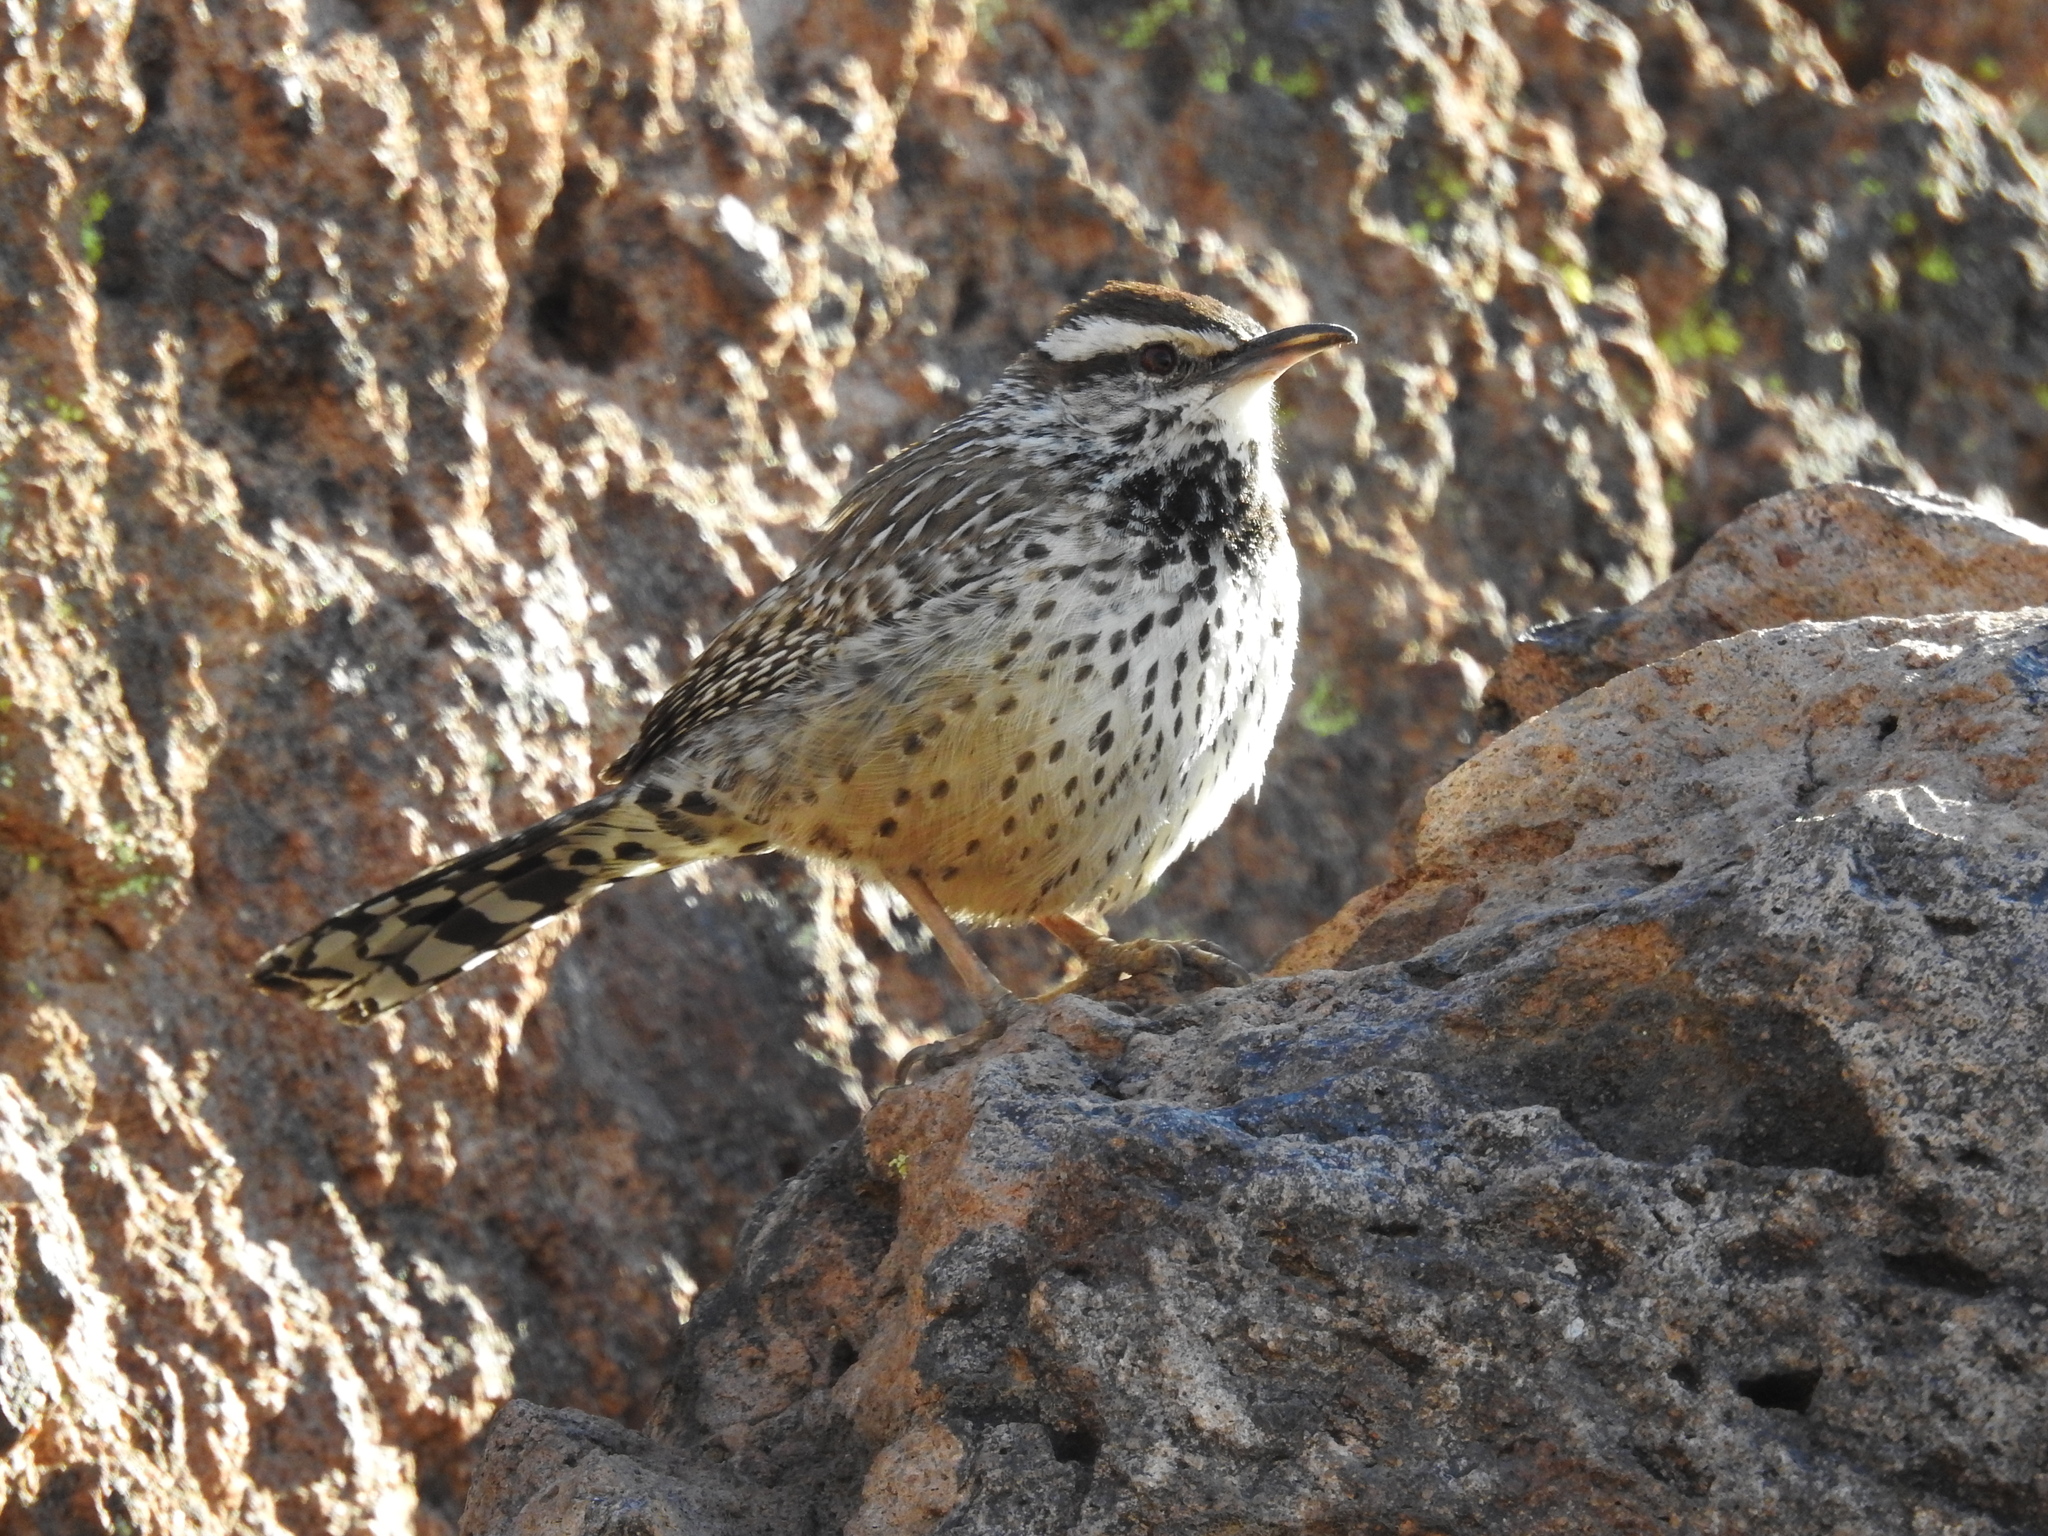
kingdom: Animalia
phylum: Chordata
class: Aves
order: Passeriformes
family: Troglodytidae
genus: Campylorhynchus
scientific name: Campylorhynchus brunneicapillus
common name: Cactus wren
